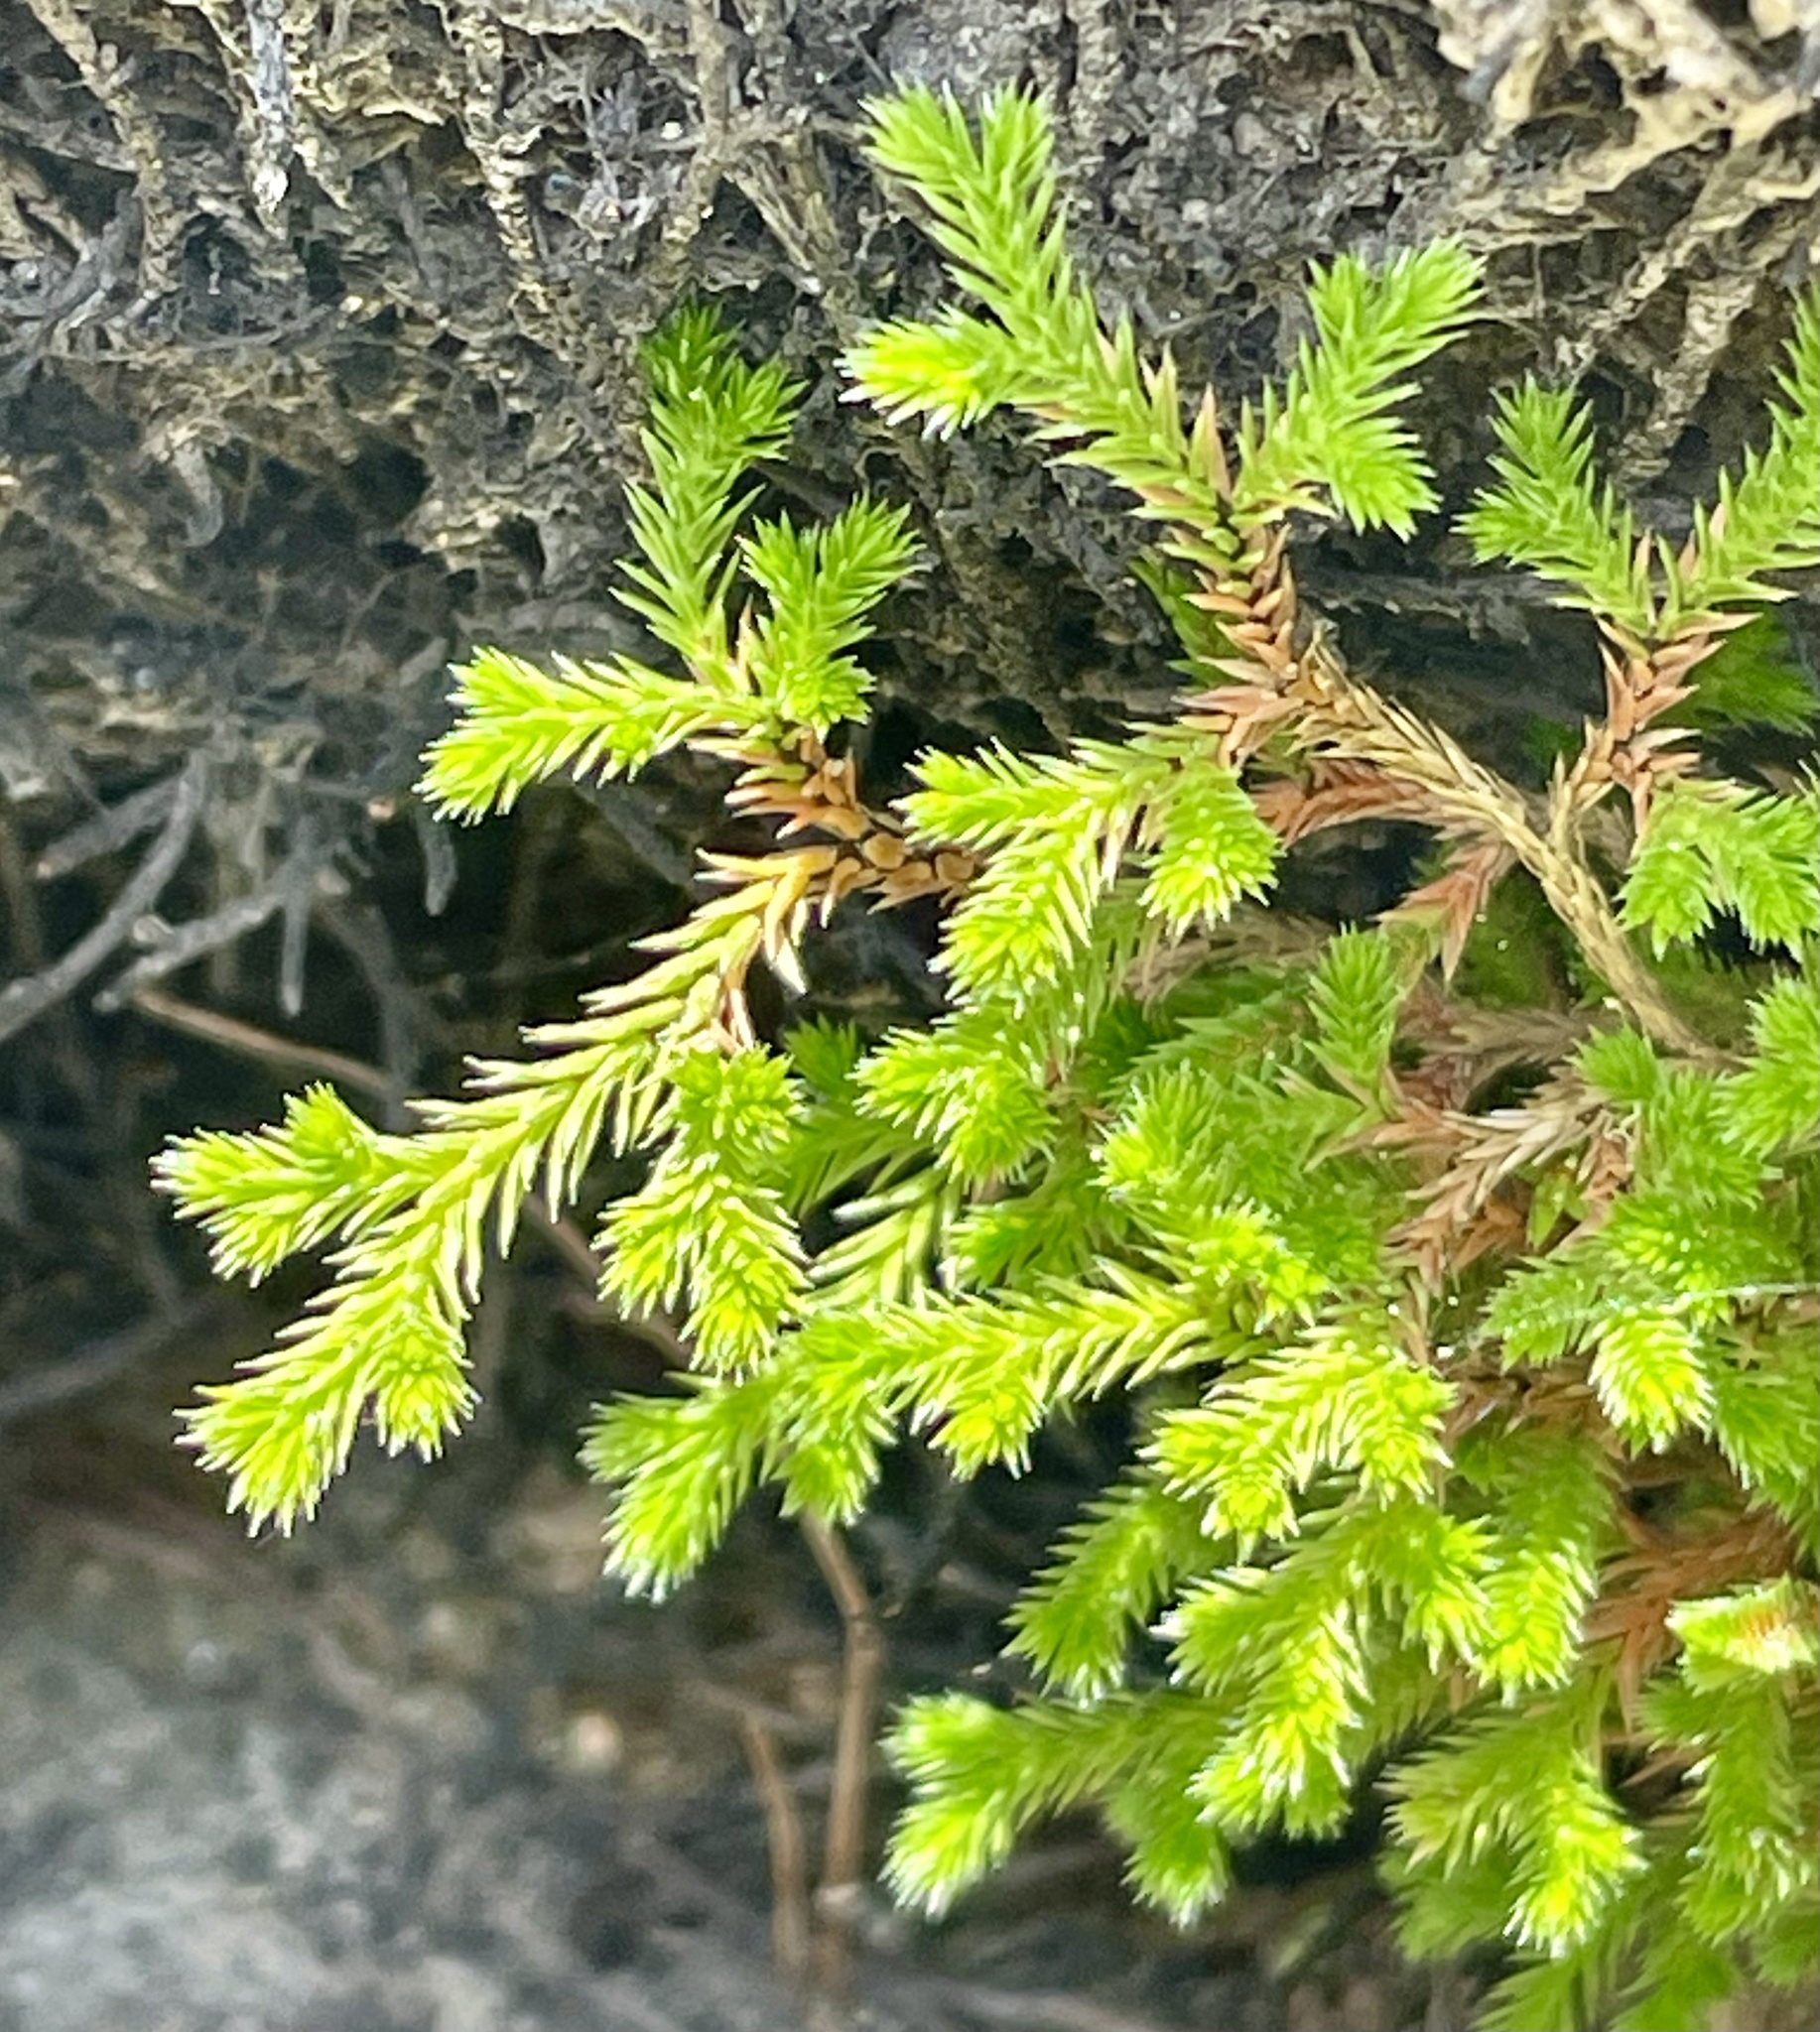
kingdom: Plantae
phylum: Tracheophyta
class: Lycopodiopsida
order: Selaginellales
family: Selaginellaceae
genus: Selaginella
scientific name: Selaginella bigelovii
